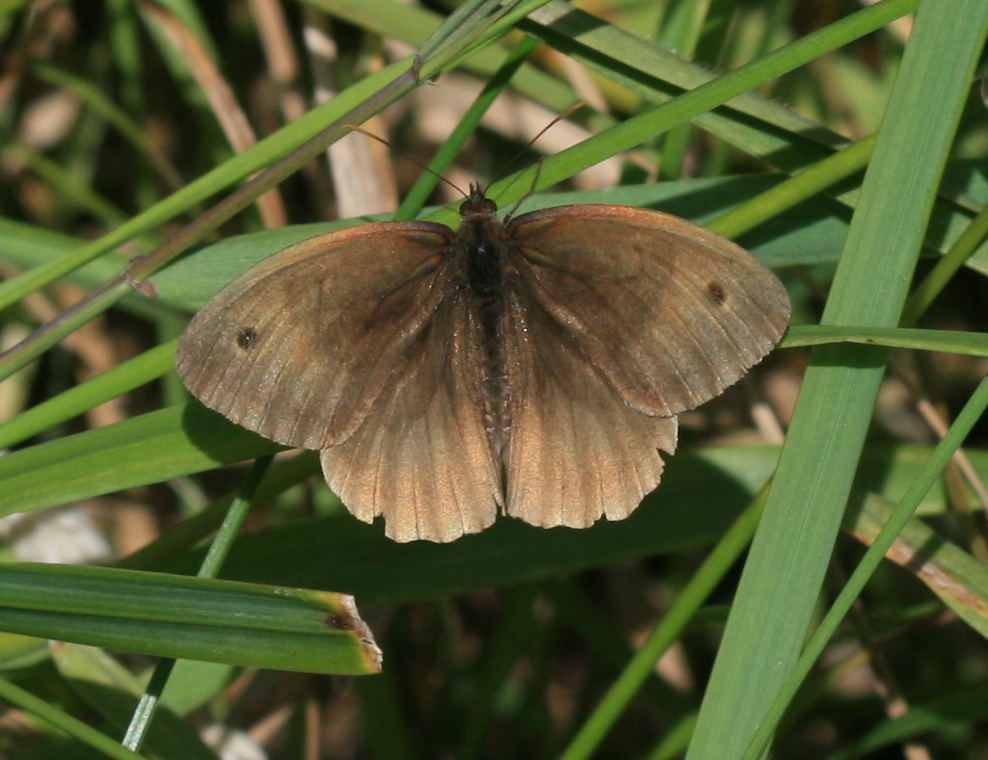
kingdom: Animalia
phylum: Arthropoda
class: Insecta
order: Lepidoptera
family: Nymphalidae
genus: Maniola
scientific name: Maniola jurtina
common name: Meadow brown
